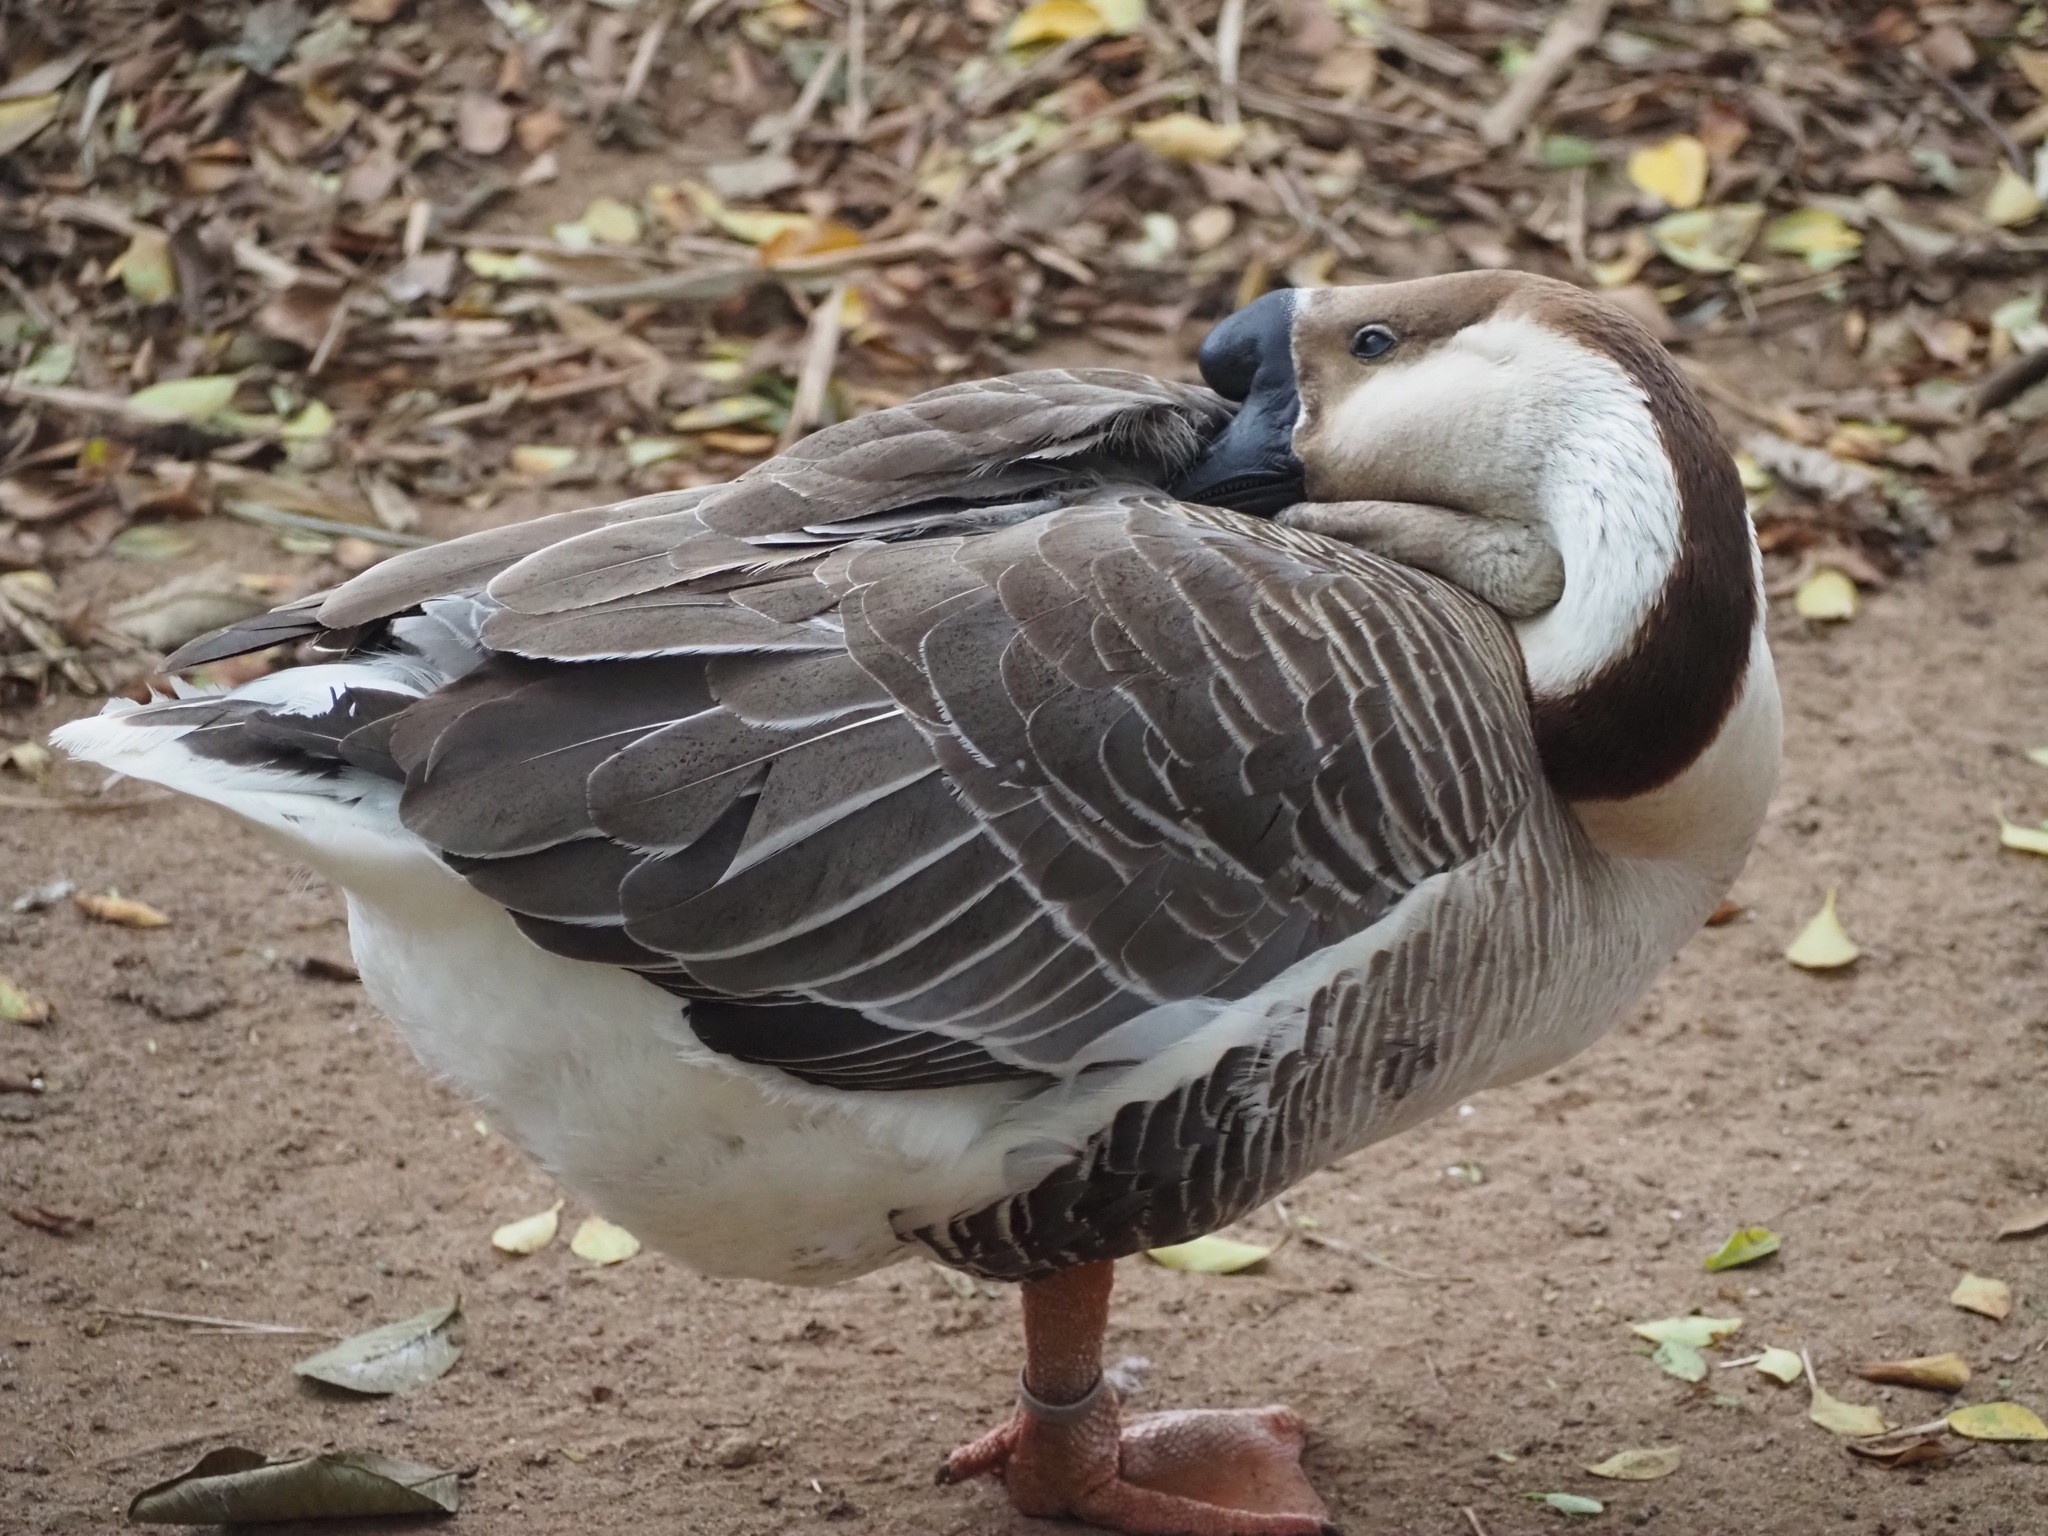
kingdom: Animalia
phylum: Chordata
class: Aves
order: Anseriformes
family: Anatidae
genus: Anser
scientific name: Anser cygnoides
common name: Swan goose
